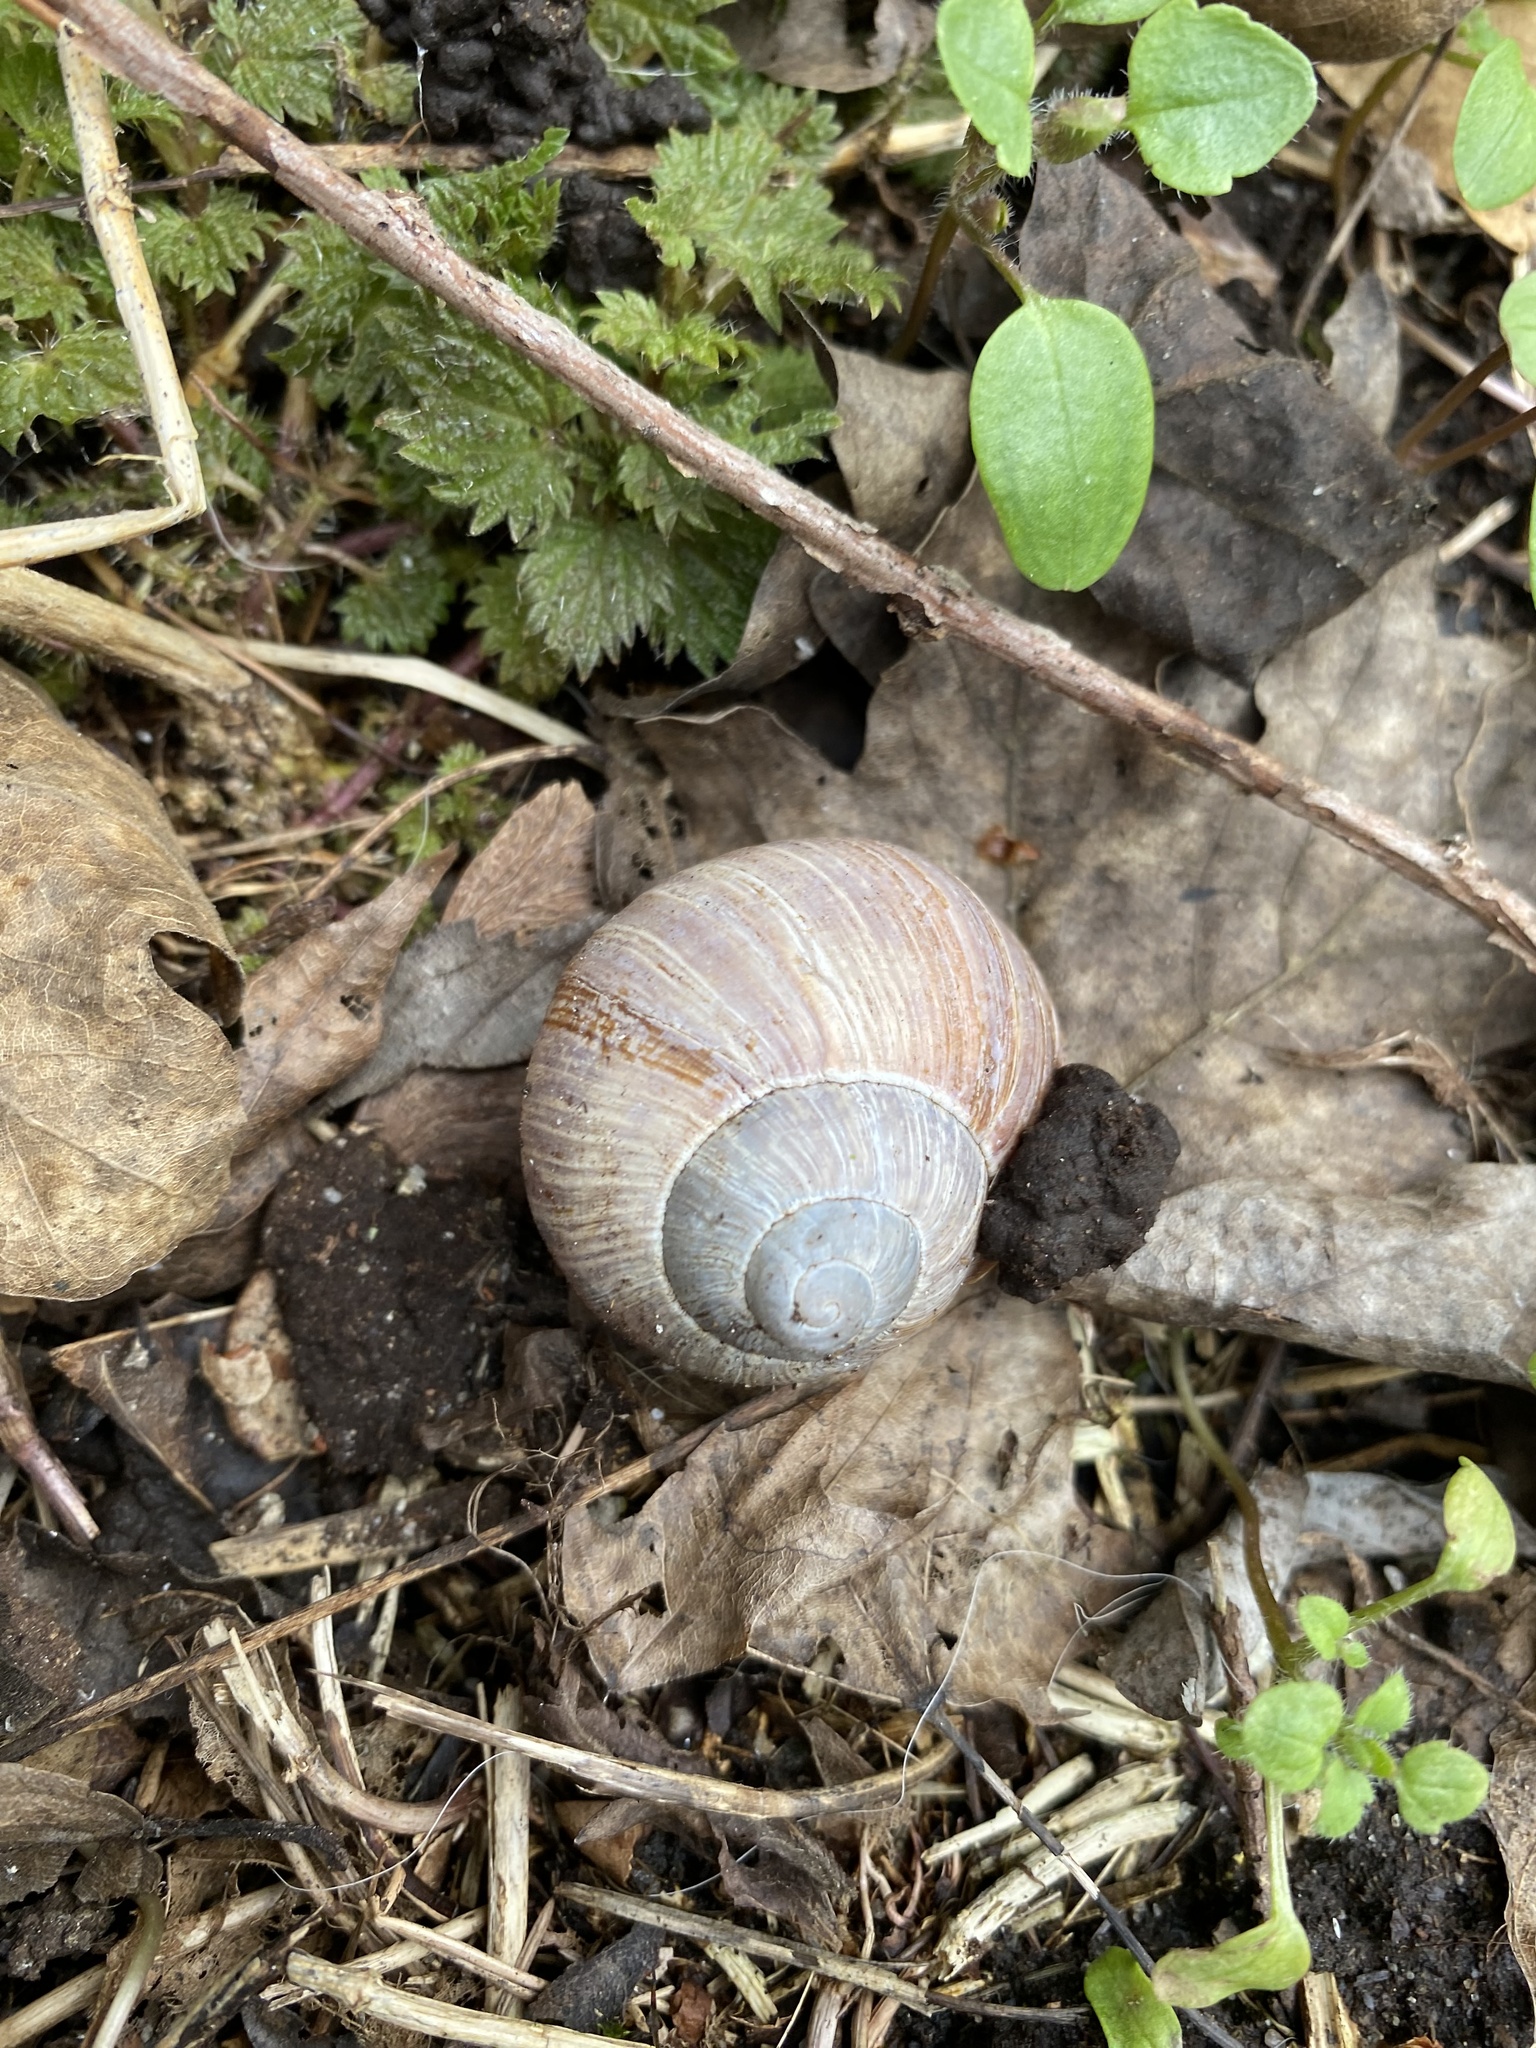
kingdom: Animalia
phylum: Mollusca
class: Gastropoda
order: Stylommatophora
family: Helicidae
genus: Helix
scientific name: Helix pomatia
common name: Roman snail
